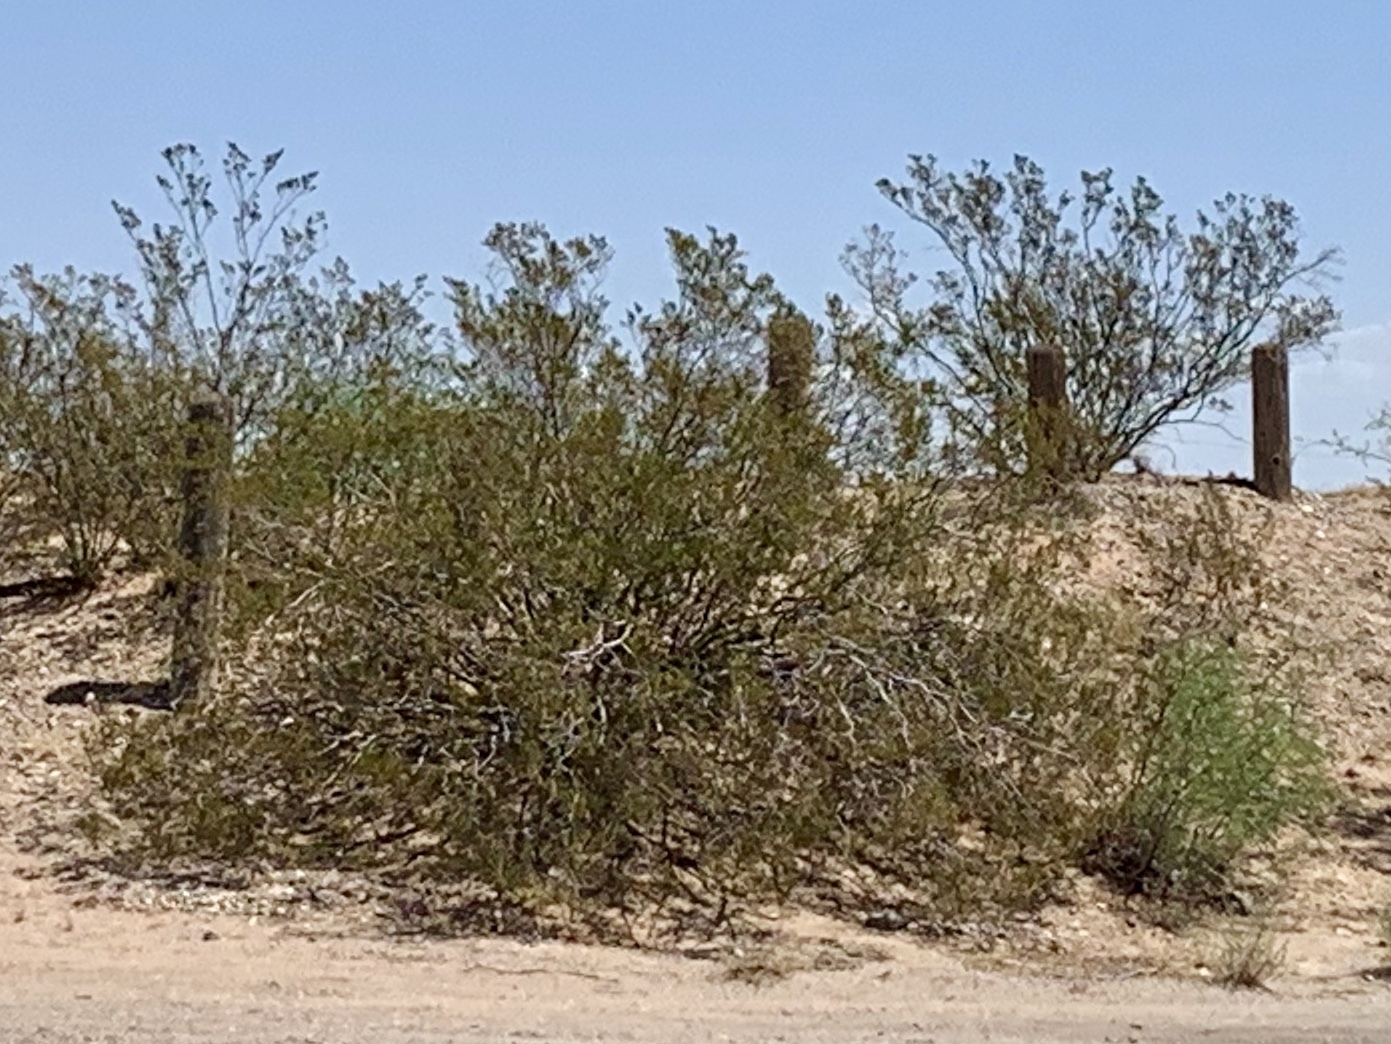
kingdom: Plantae
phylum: Tracheophyta
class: Magnoliopsida
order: Zygophyllales
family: Zygophyllaceae
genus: Larrea
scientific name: Larrea tridentata
